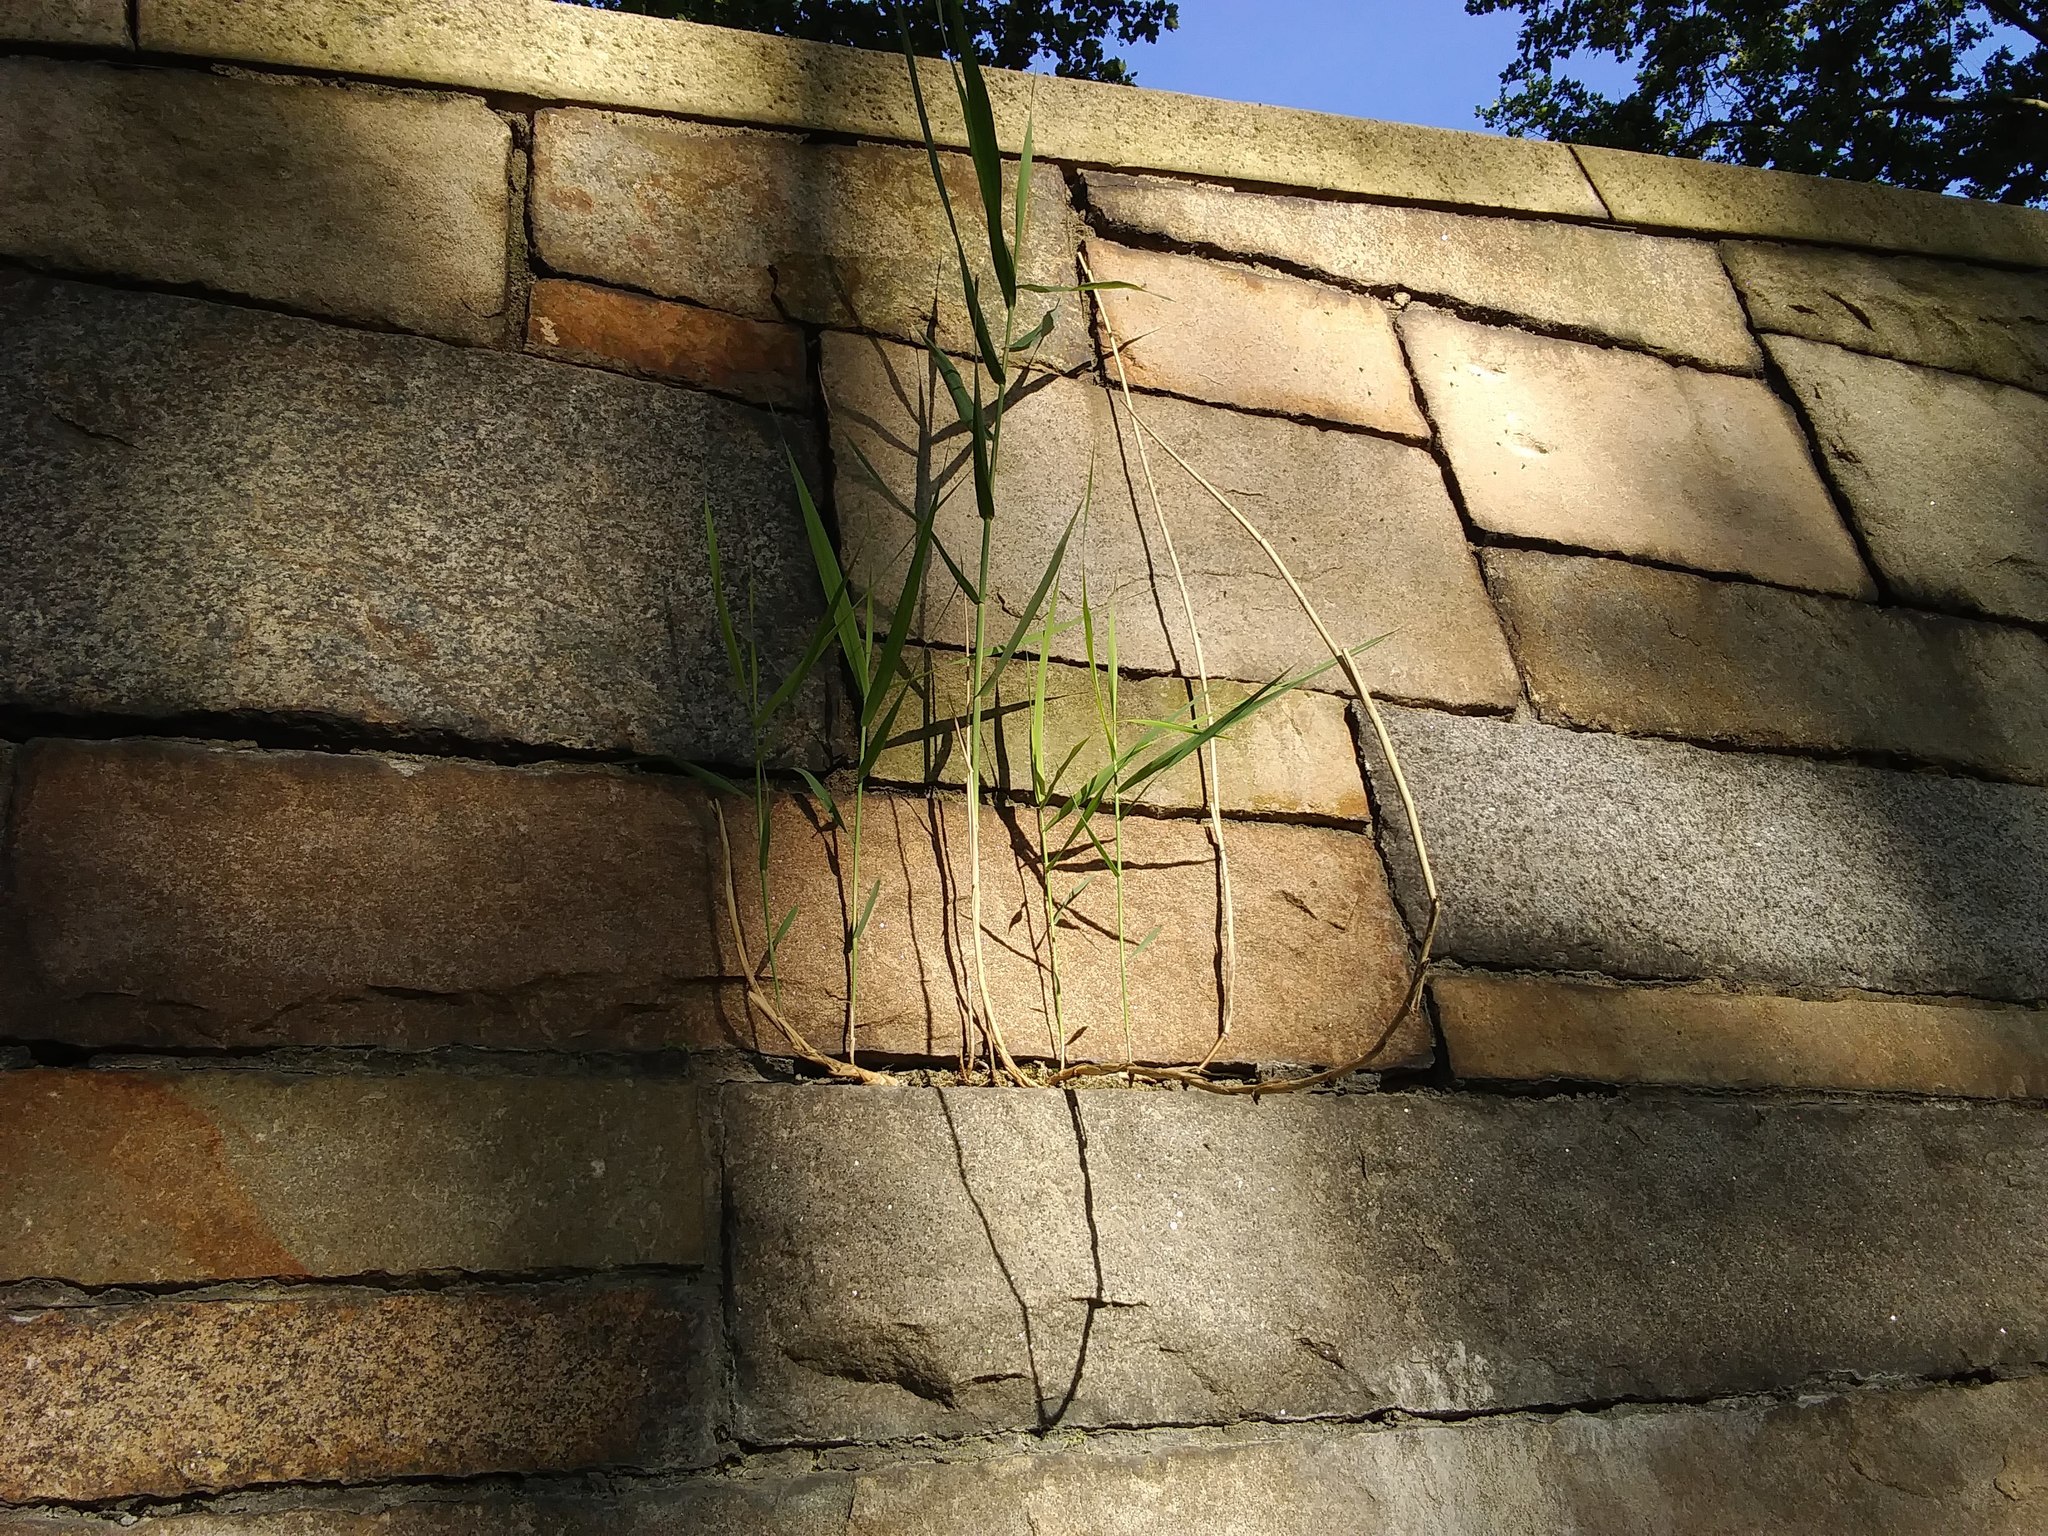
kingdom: Plantae
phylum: Tracheophyta
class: Liliopsida
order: Poales
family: Poaceae
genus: Phragmites
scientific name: Phragmites australis
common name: Common reed
